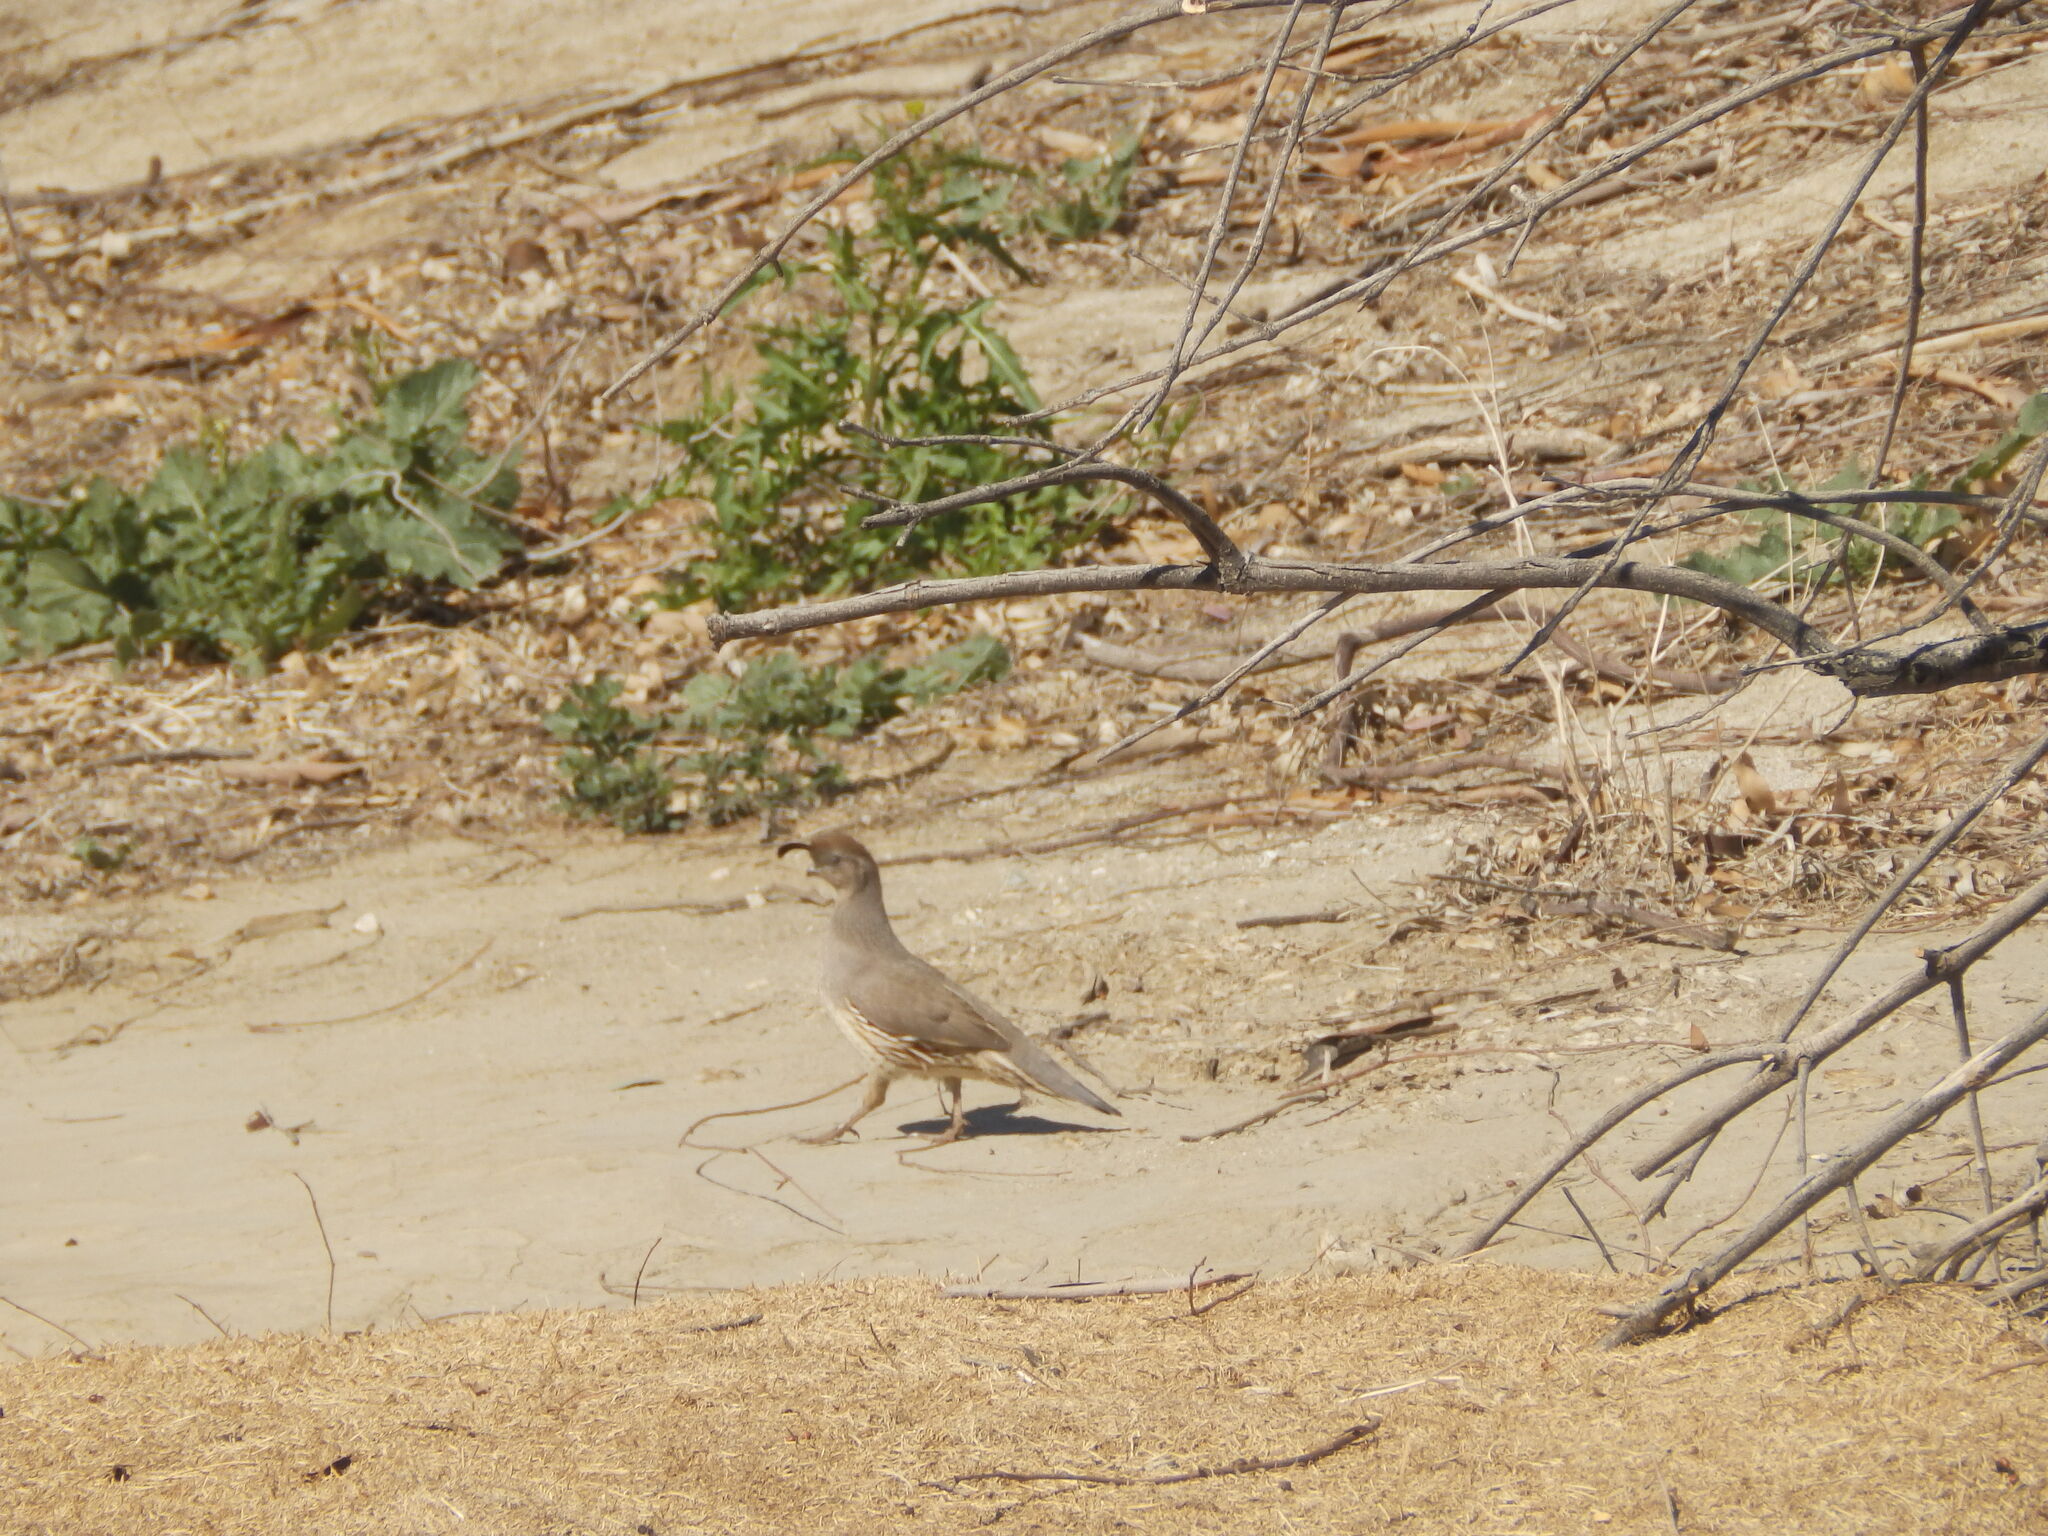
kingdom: Animalia
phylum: Chordata
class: Aves
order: Galliformes
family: Odontophoridae
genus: Callipepla
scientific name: Callipepla gambelii
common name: Gambel's quail
